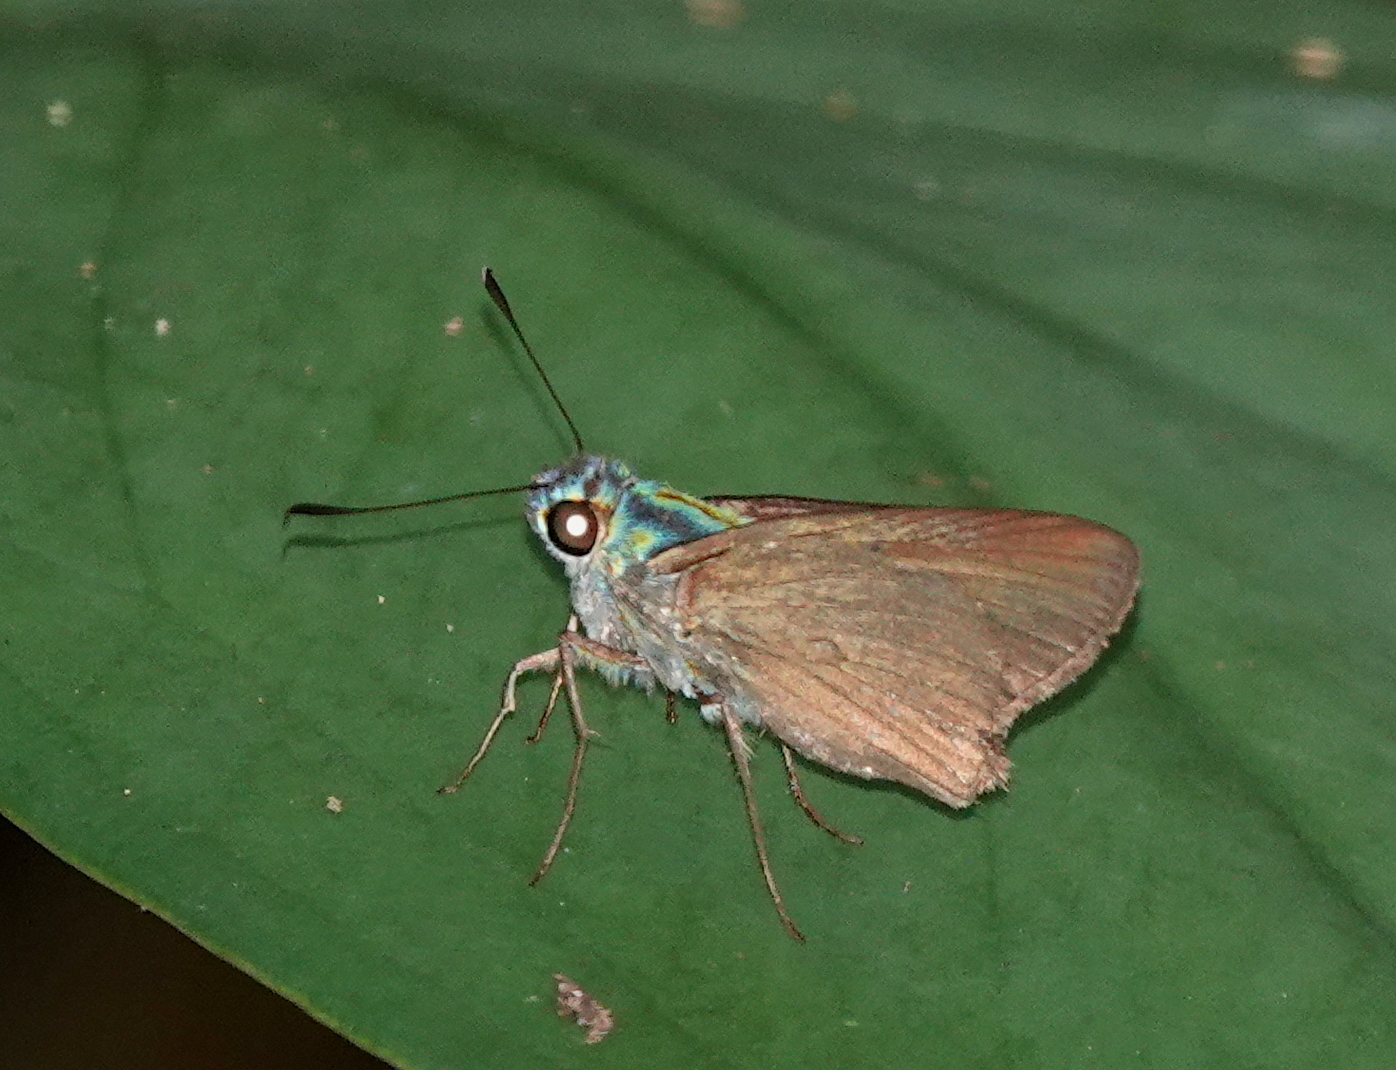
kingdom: Animalia
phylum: Arthropoda
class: Insecta
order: Lepidoptera
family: Hesperiidae
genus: Onophas
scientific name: Onophas columbaria
